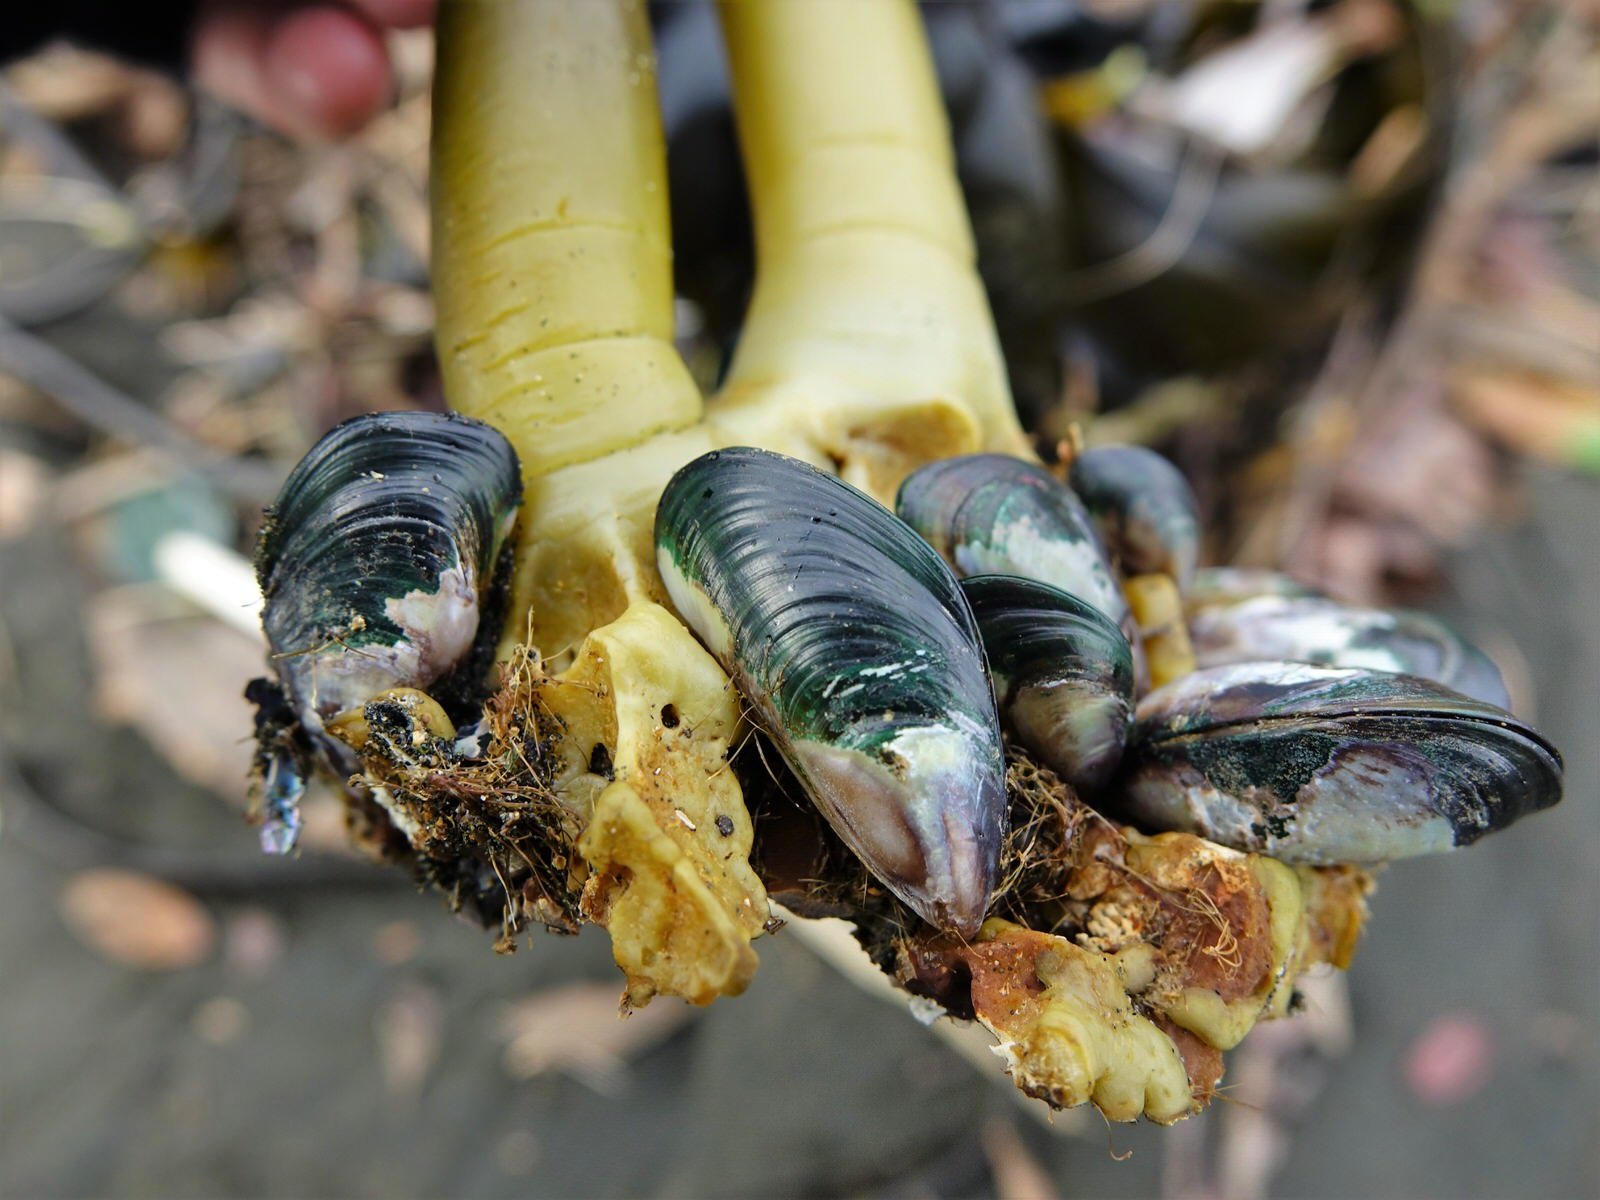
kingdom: Animalia
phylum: Mollusca
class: Bivalvia
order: Mytilida
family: Mytilidae
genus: Perna
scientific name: Perna canaliculus
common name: New zealand greenshelltm
